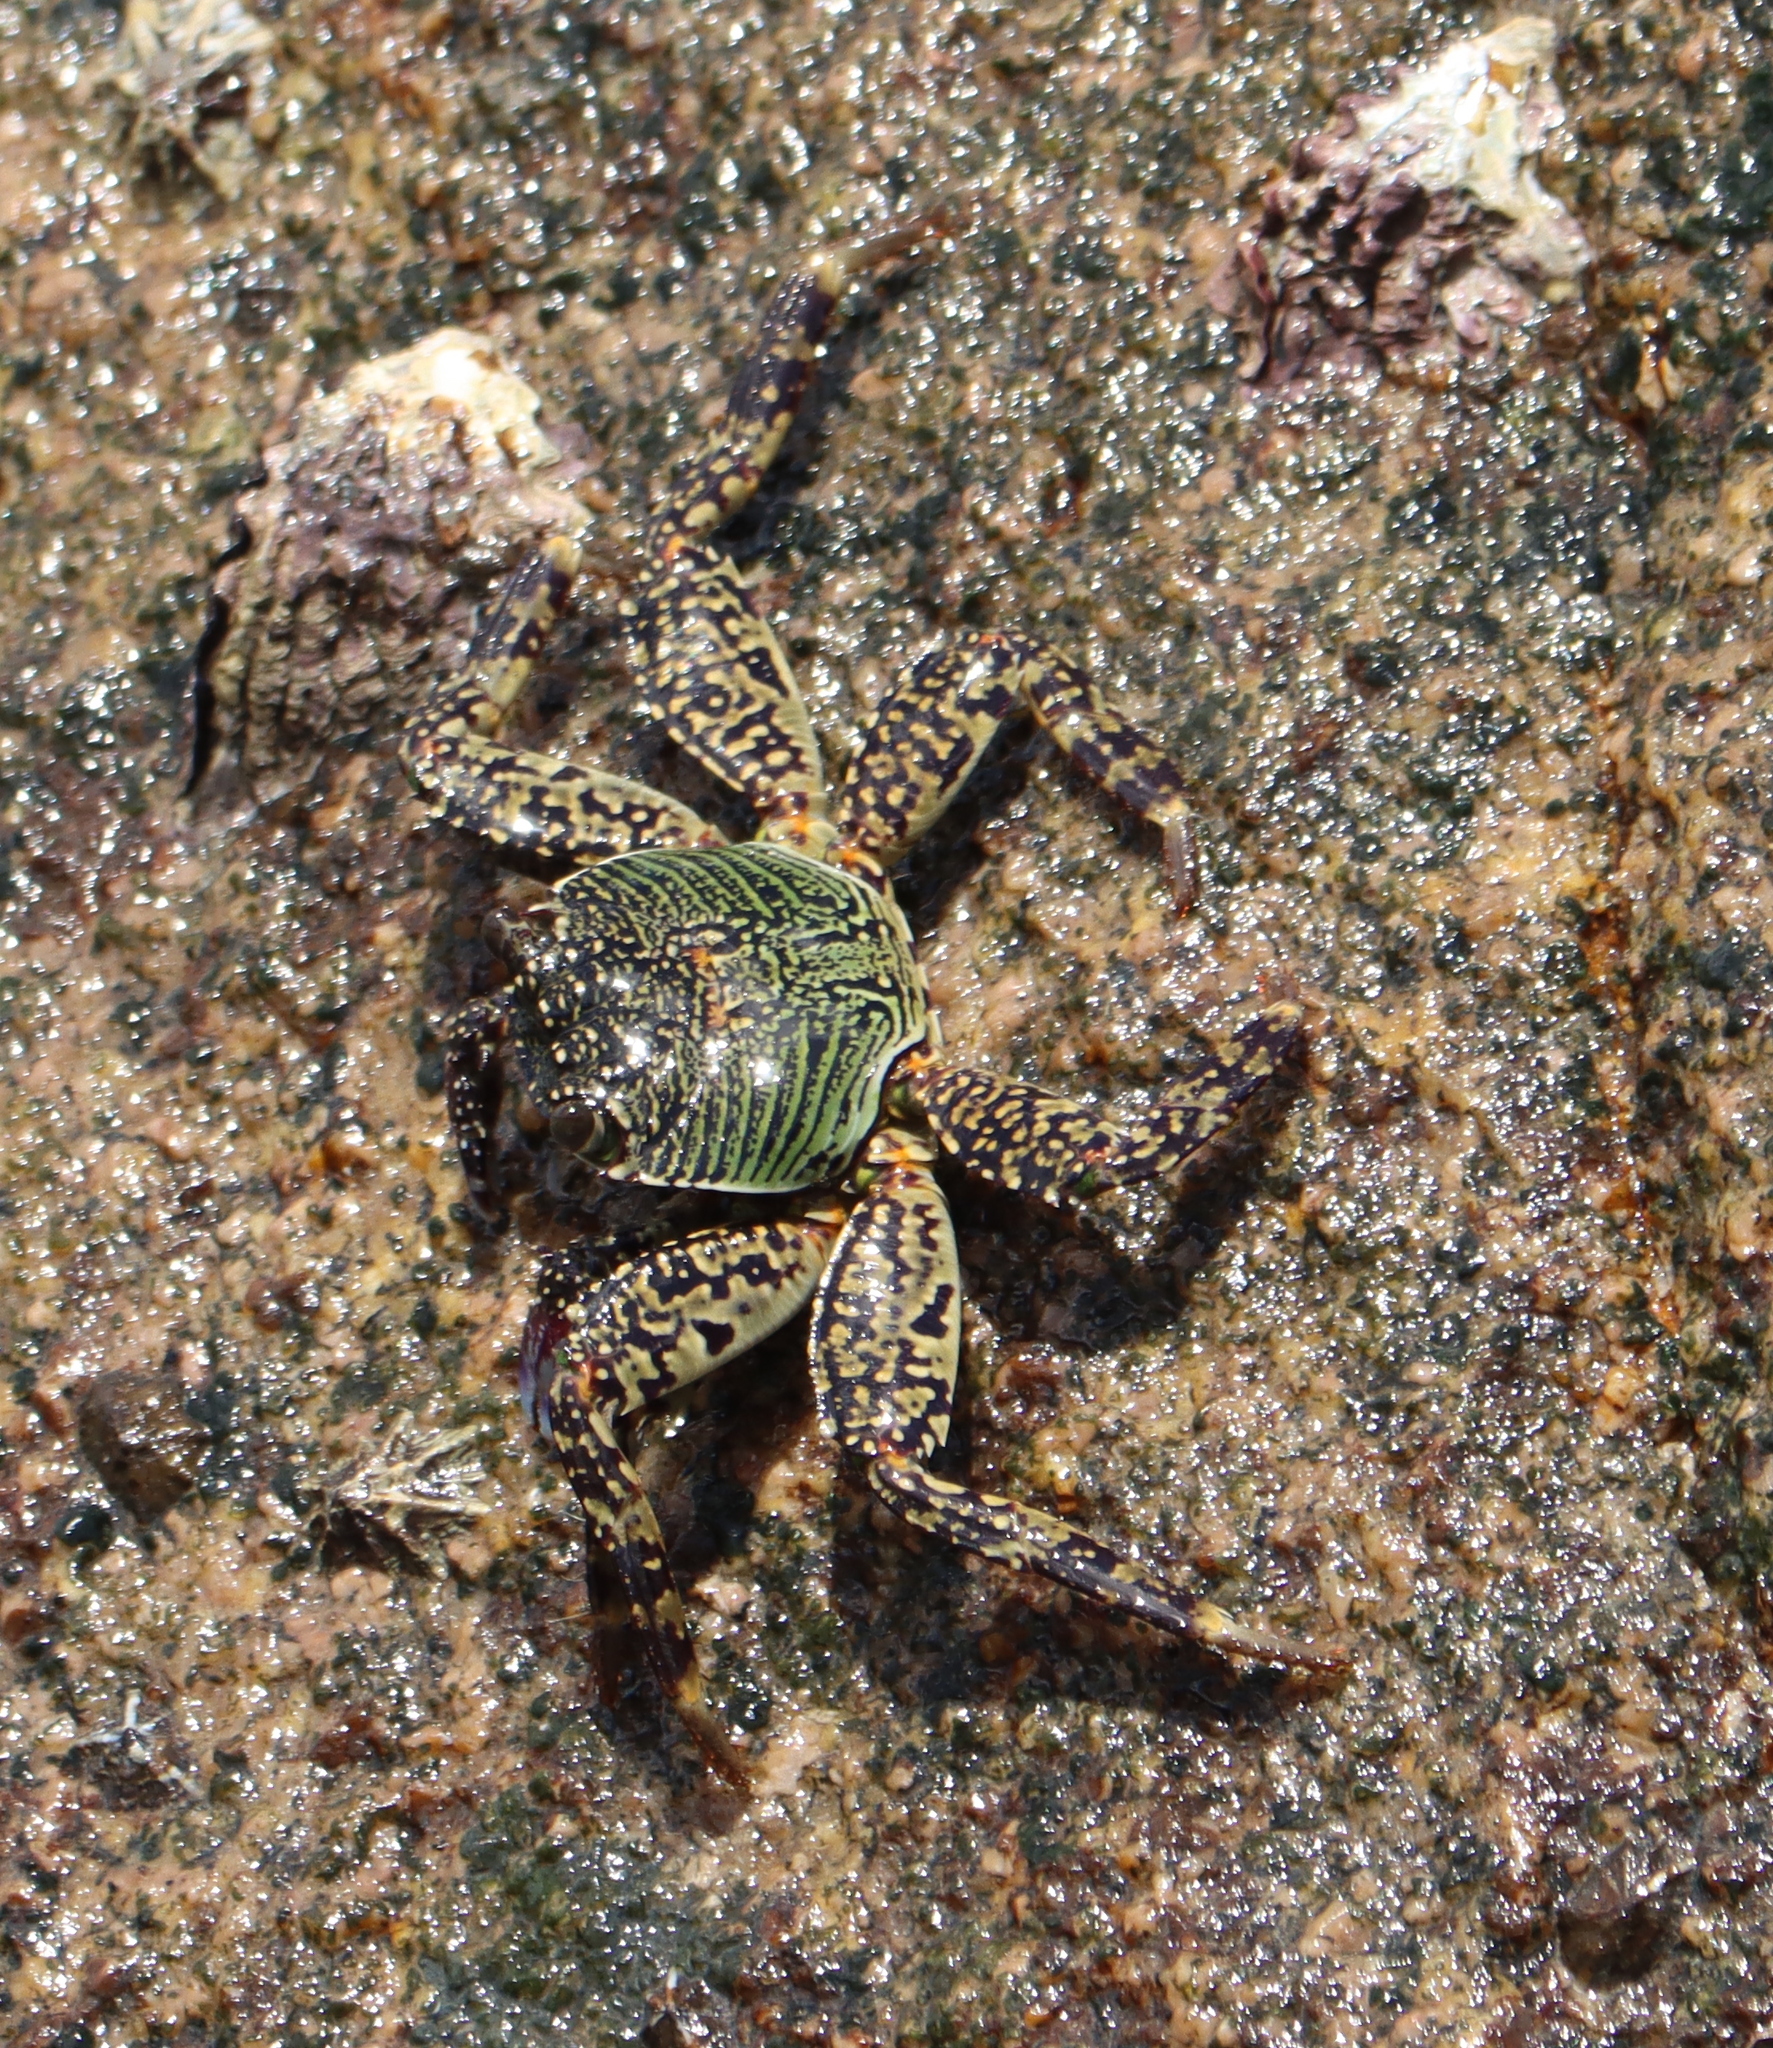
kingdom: Animalia
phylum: Arthropoda
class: Malacostraca
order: Decapoda
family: Grapsidae
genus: Grapsus
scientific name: Grapsus albolineatus
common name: Mottled lightfoot crab
